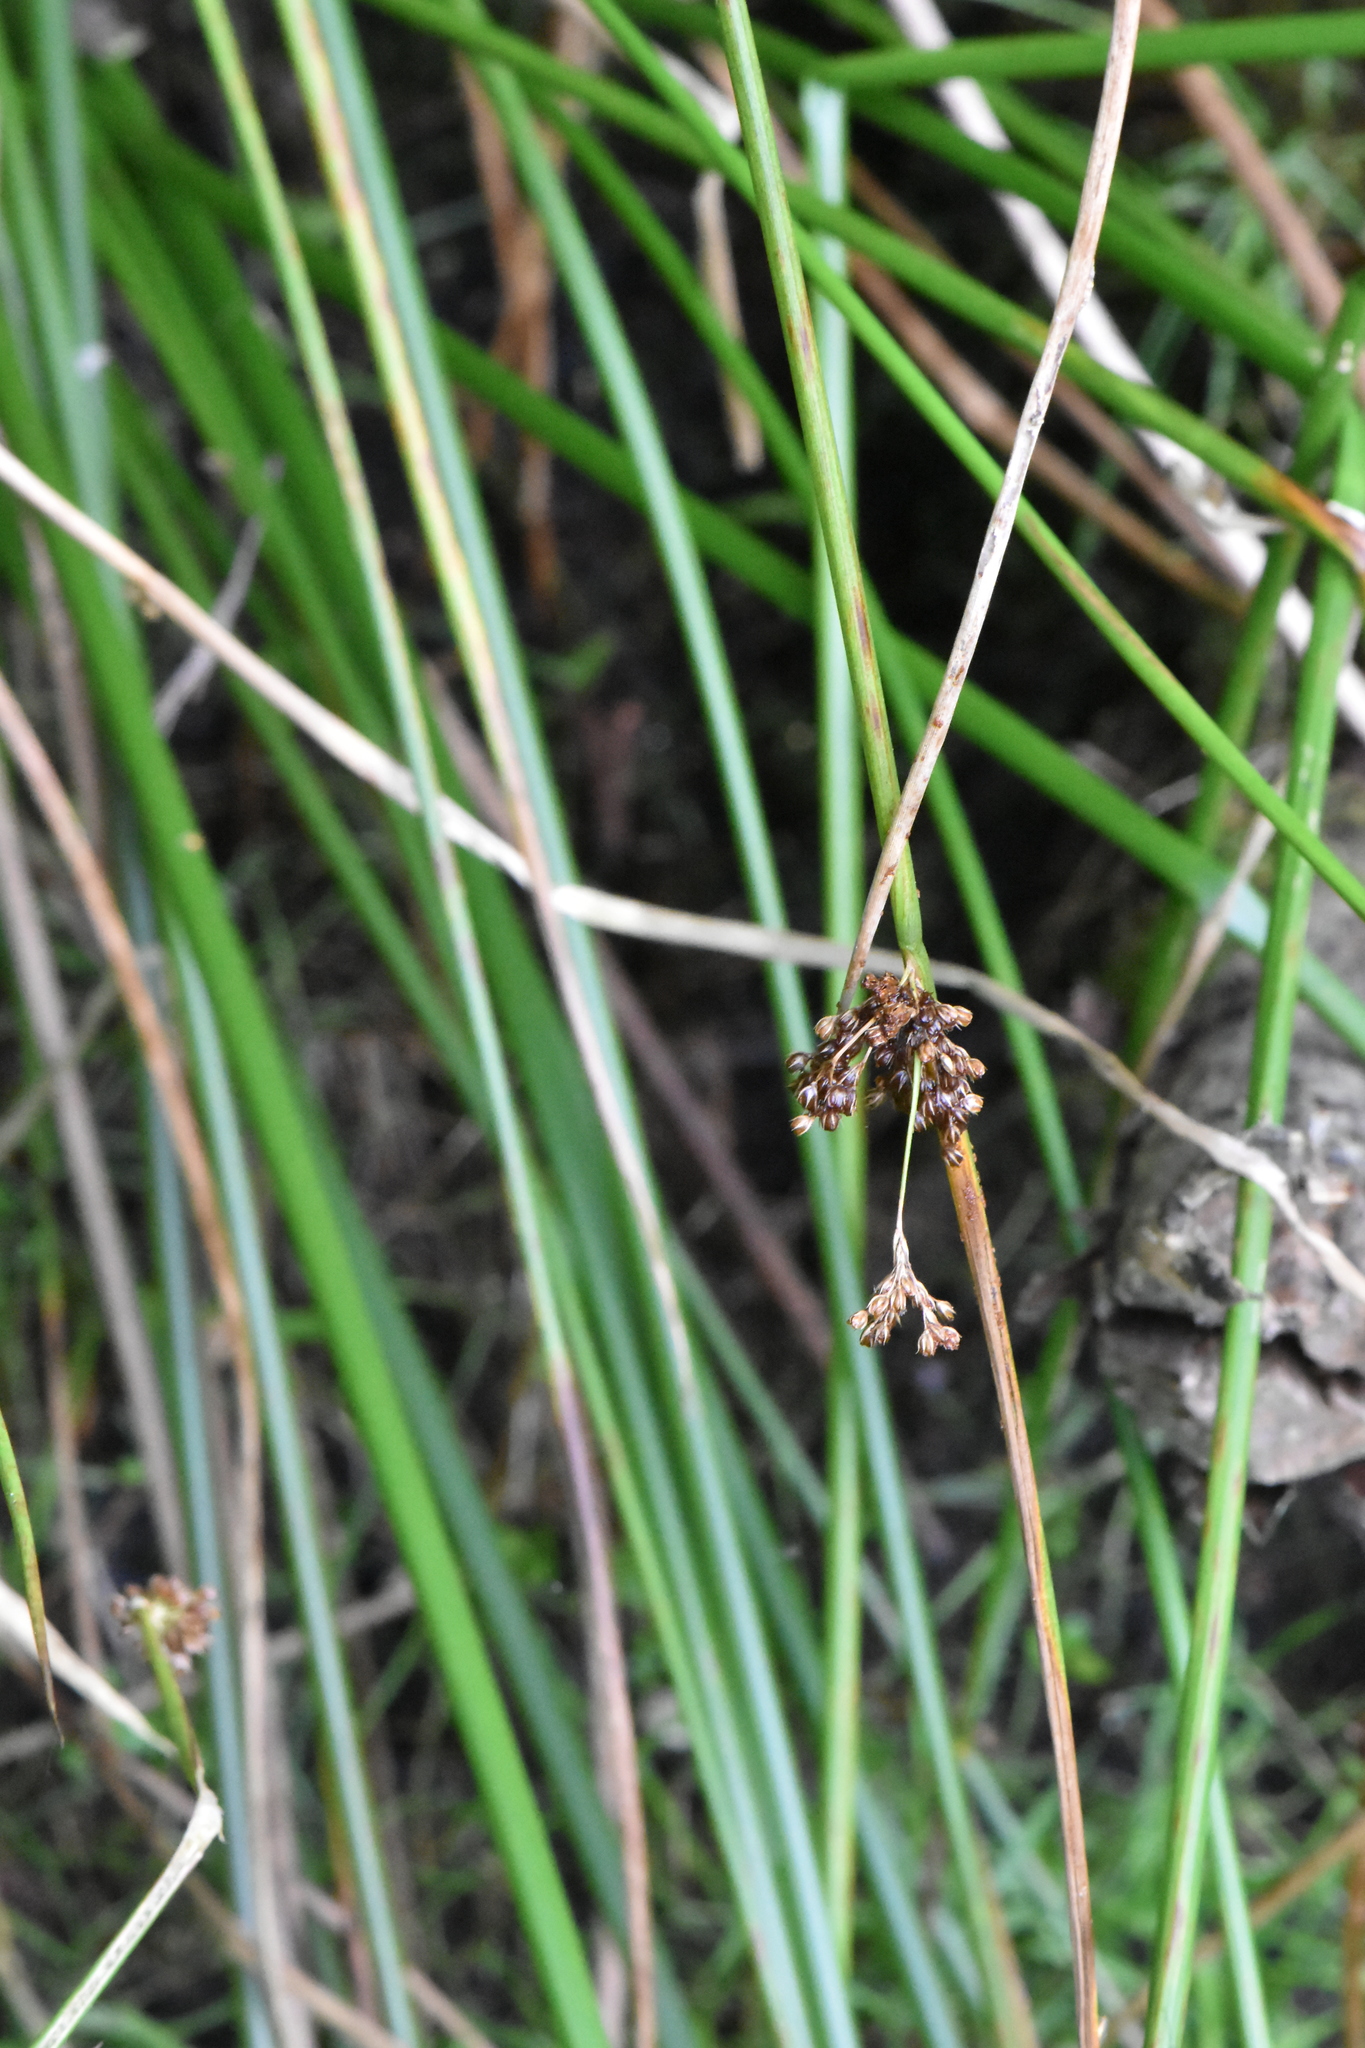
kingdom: Plantae
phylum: Tracheophyta
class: Liliopsida
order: Poales
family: Juncaceae
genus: Juncus
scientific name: Juncus effusus
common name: Soft rush
